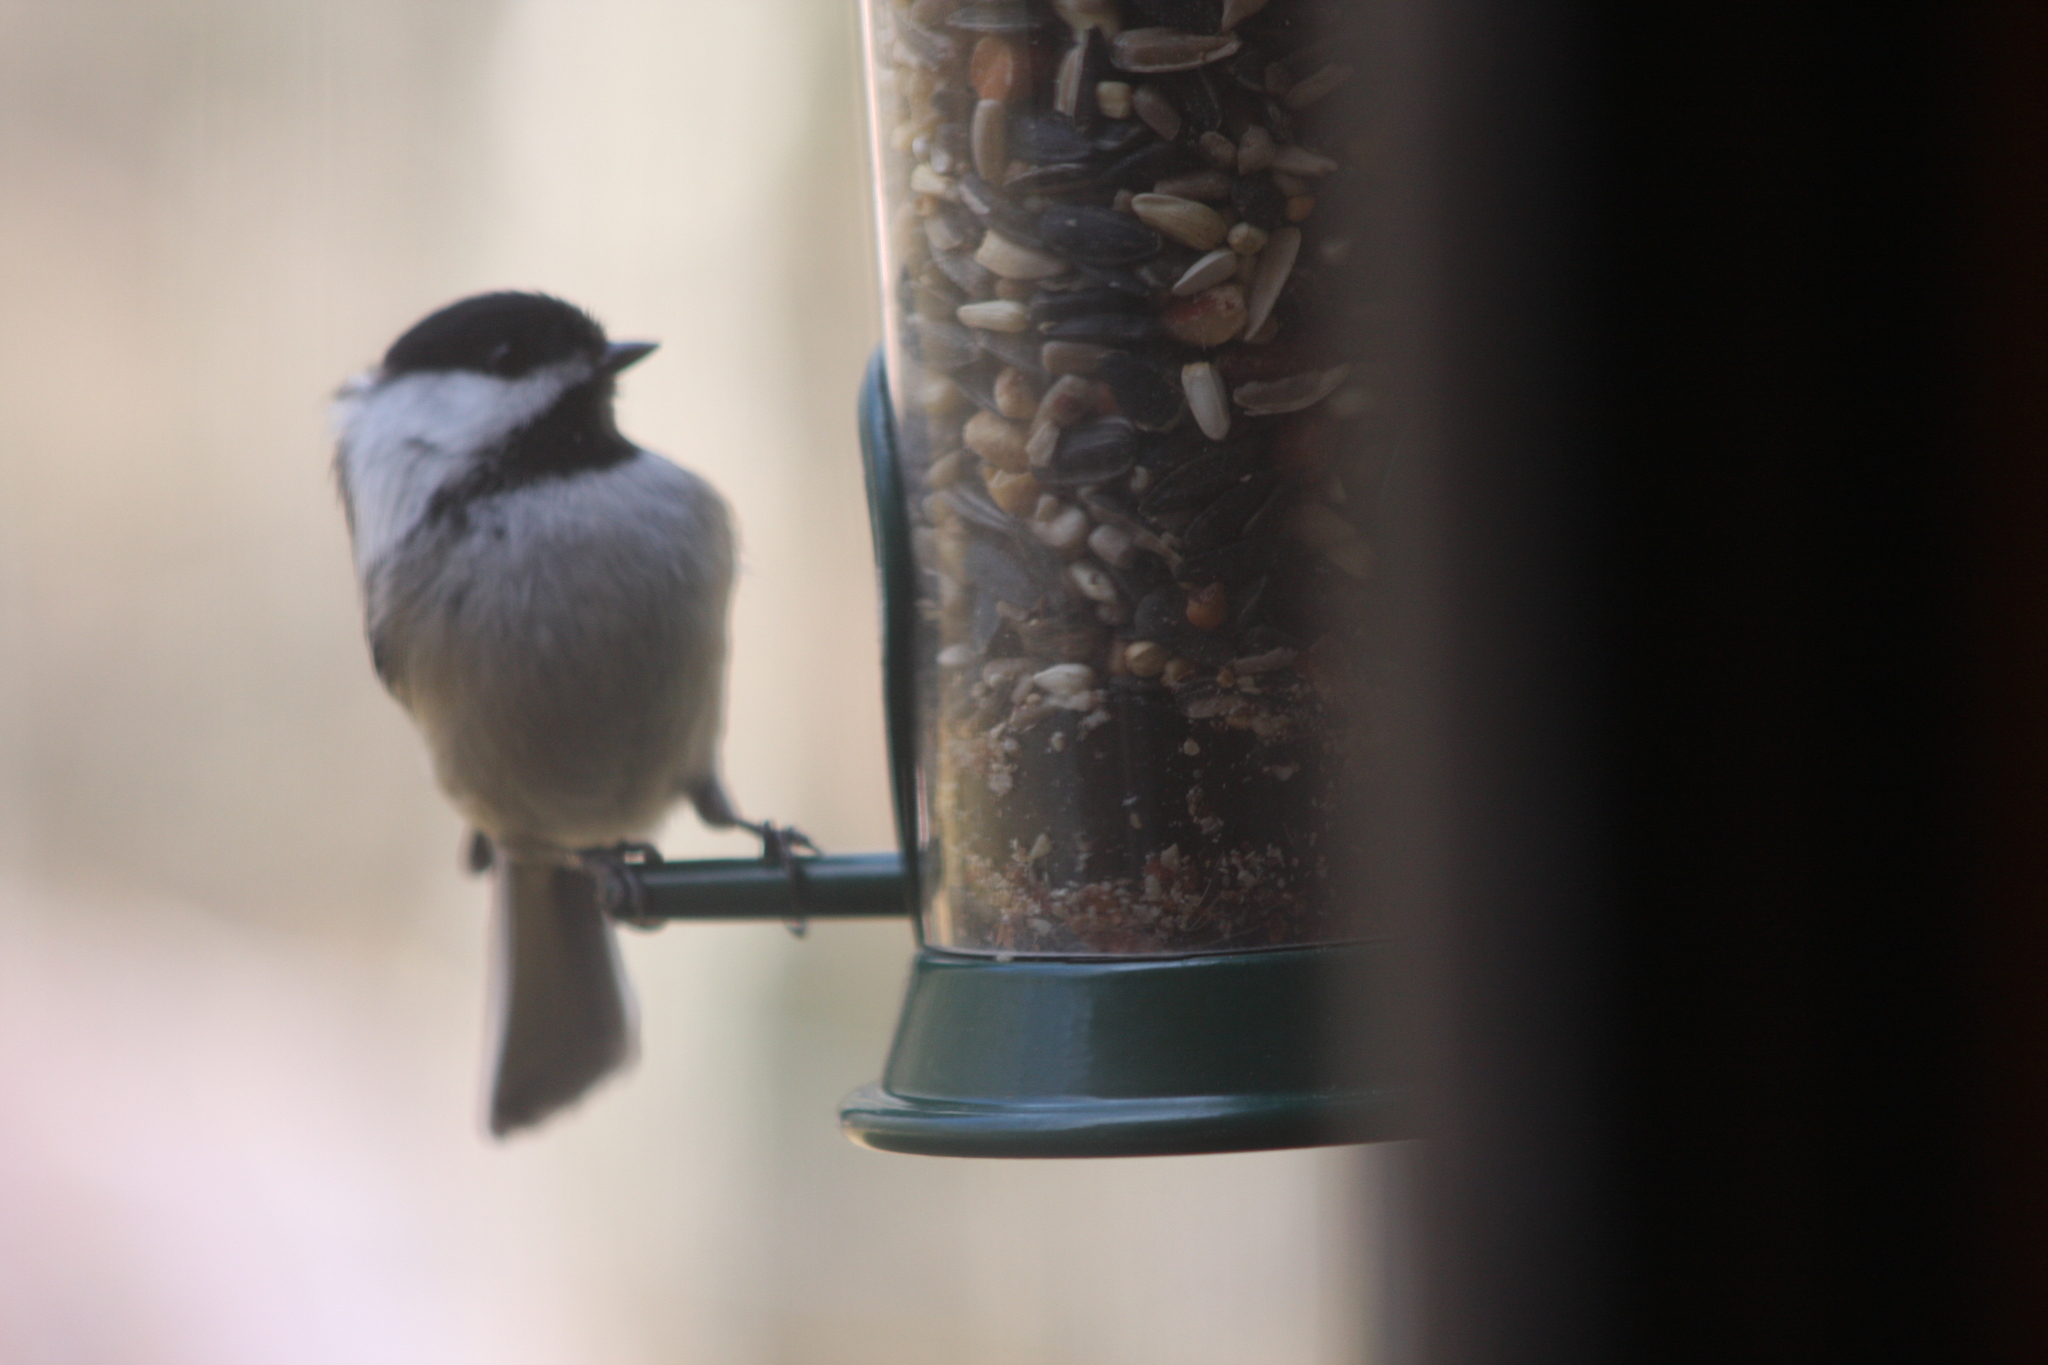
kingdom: Animalia
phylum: Chordata
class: Aves
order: Passeriformes
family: Paridae
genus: Poecile
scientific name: Poecile atricapillus
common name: Black-capped chickadee
